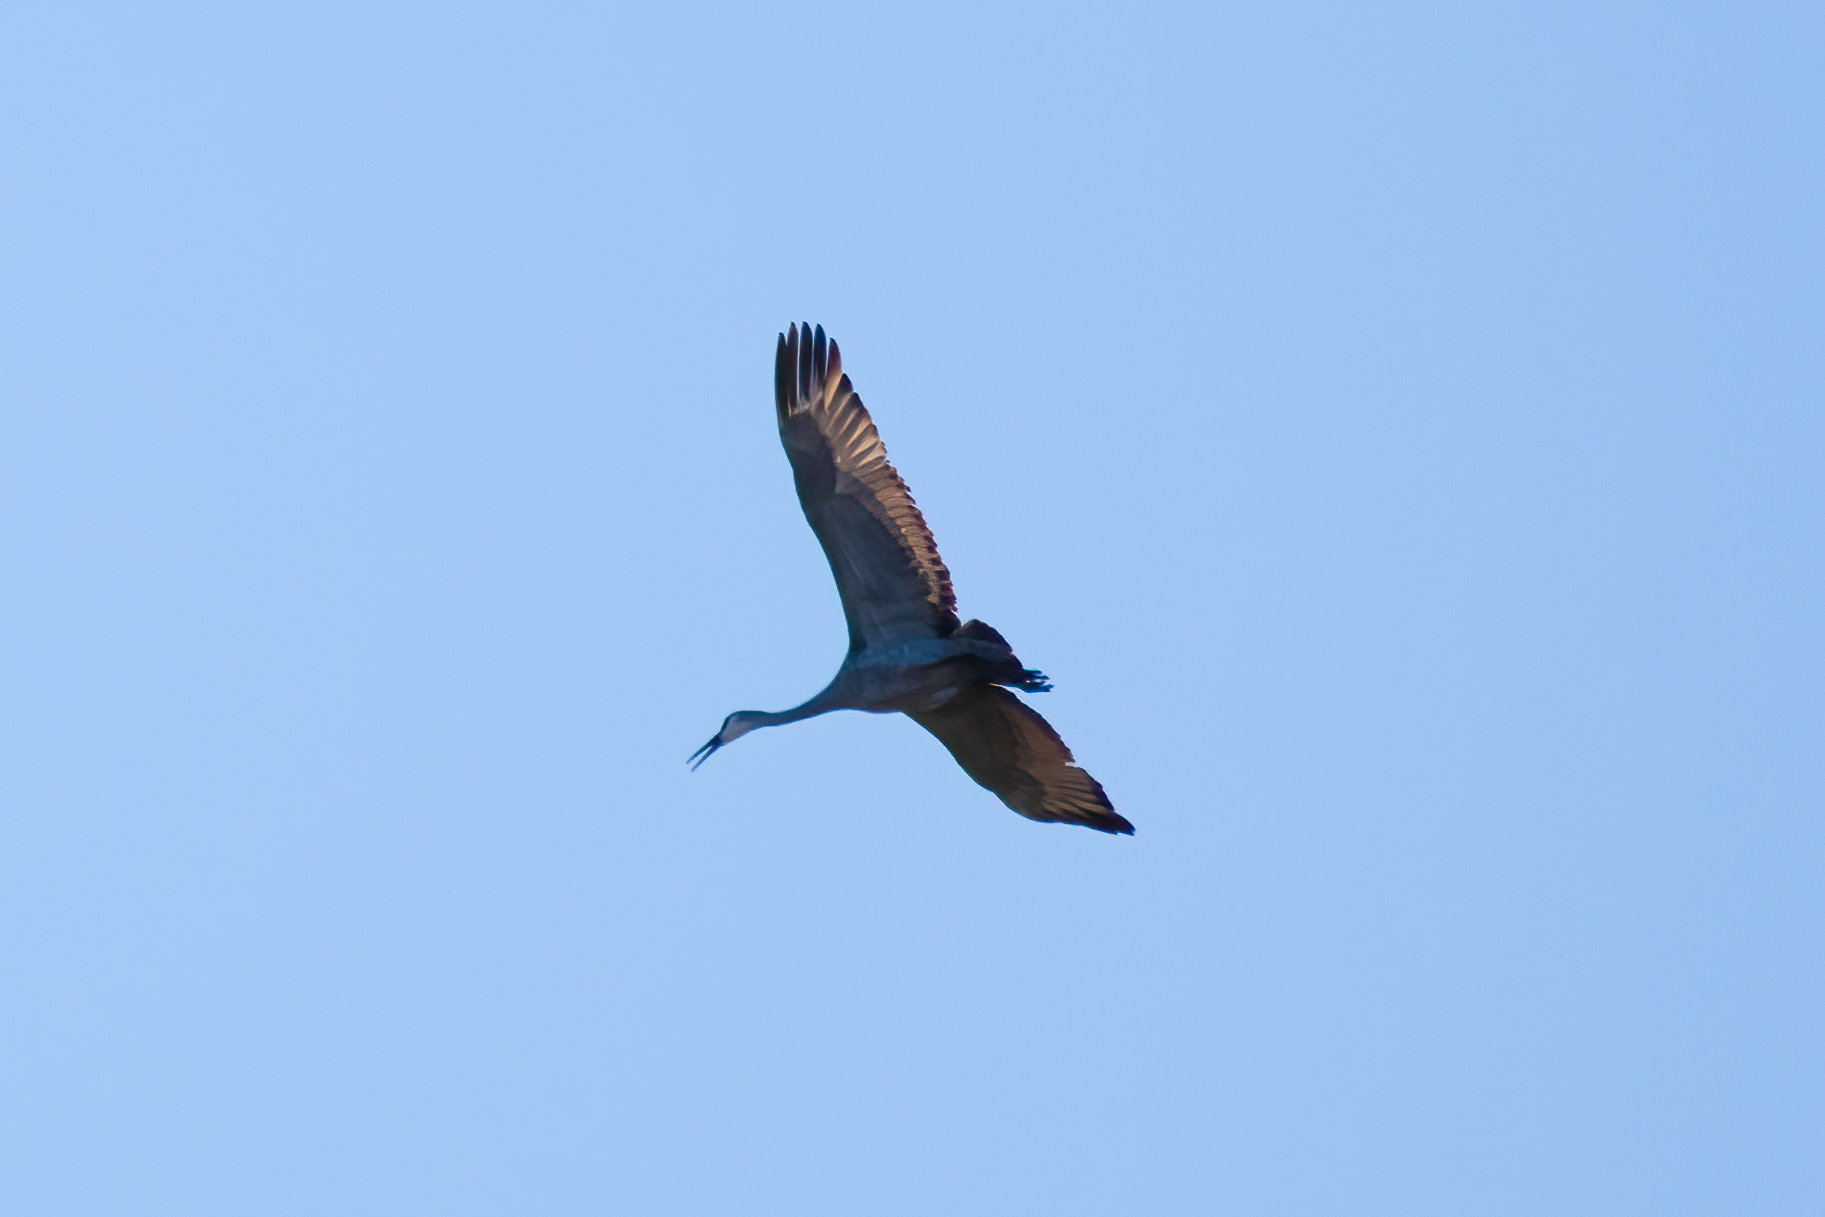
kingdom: Animalia
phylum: Chordata
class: Aves
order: Gruiformes
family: Gruidae
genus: Grus
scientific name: Grus canadensis
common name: Sandhill crane
